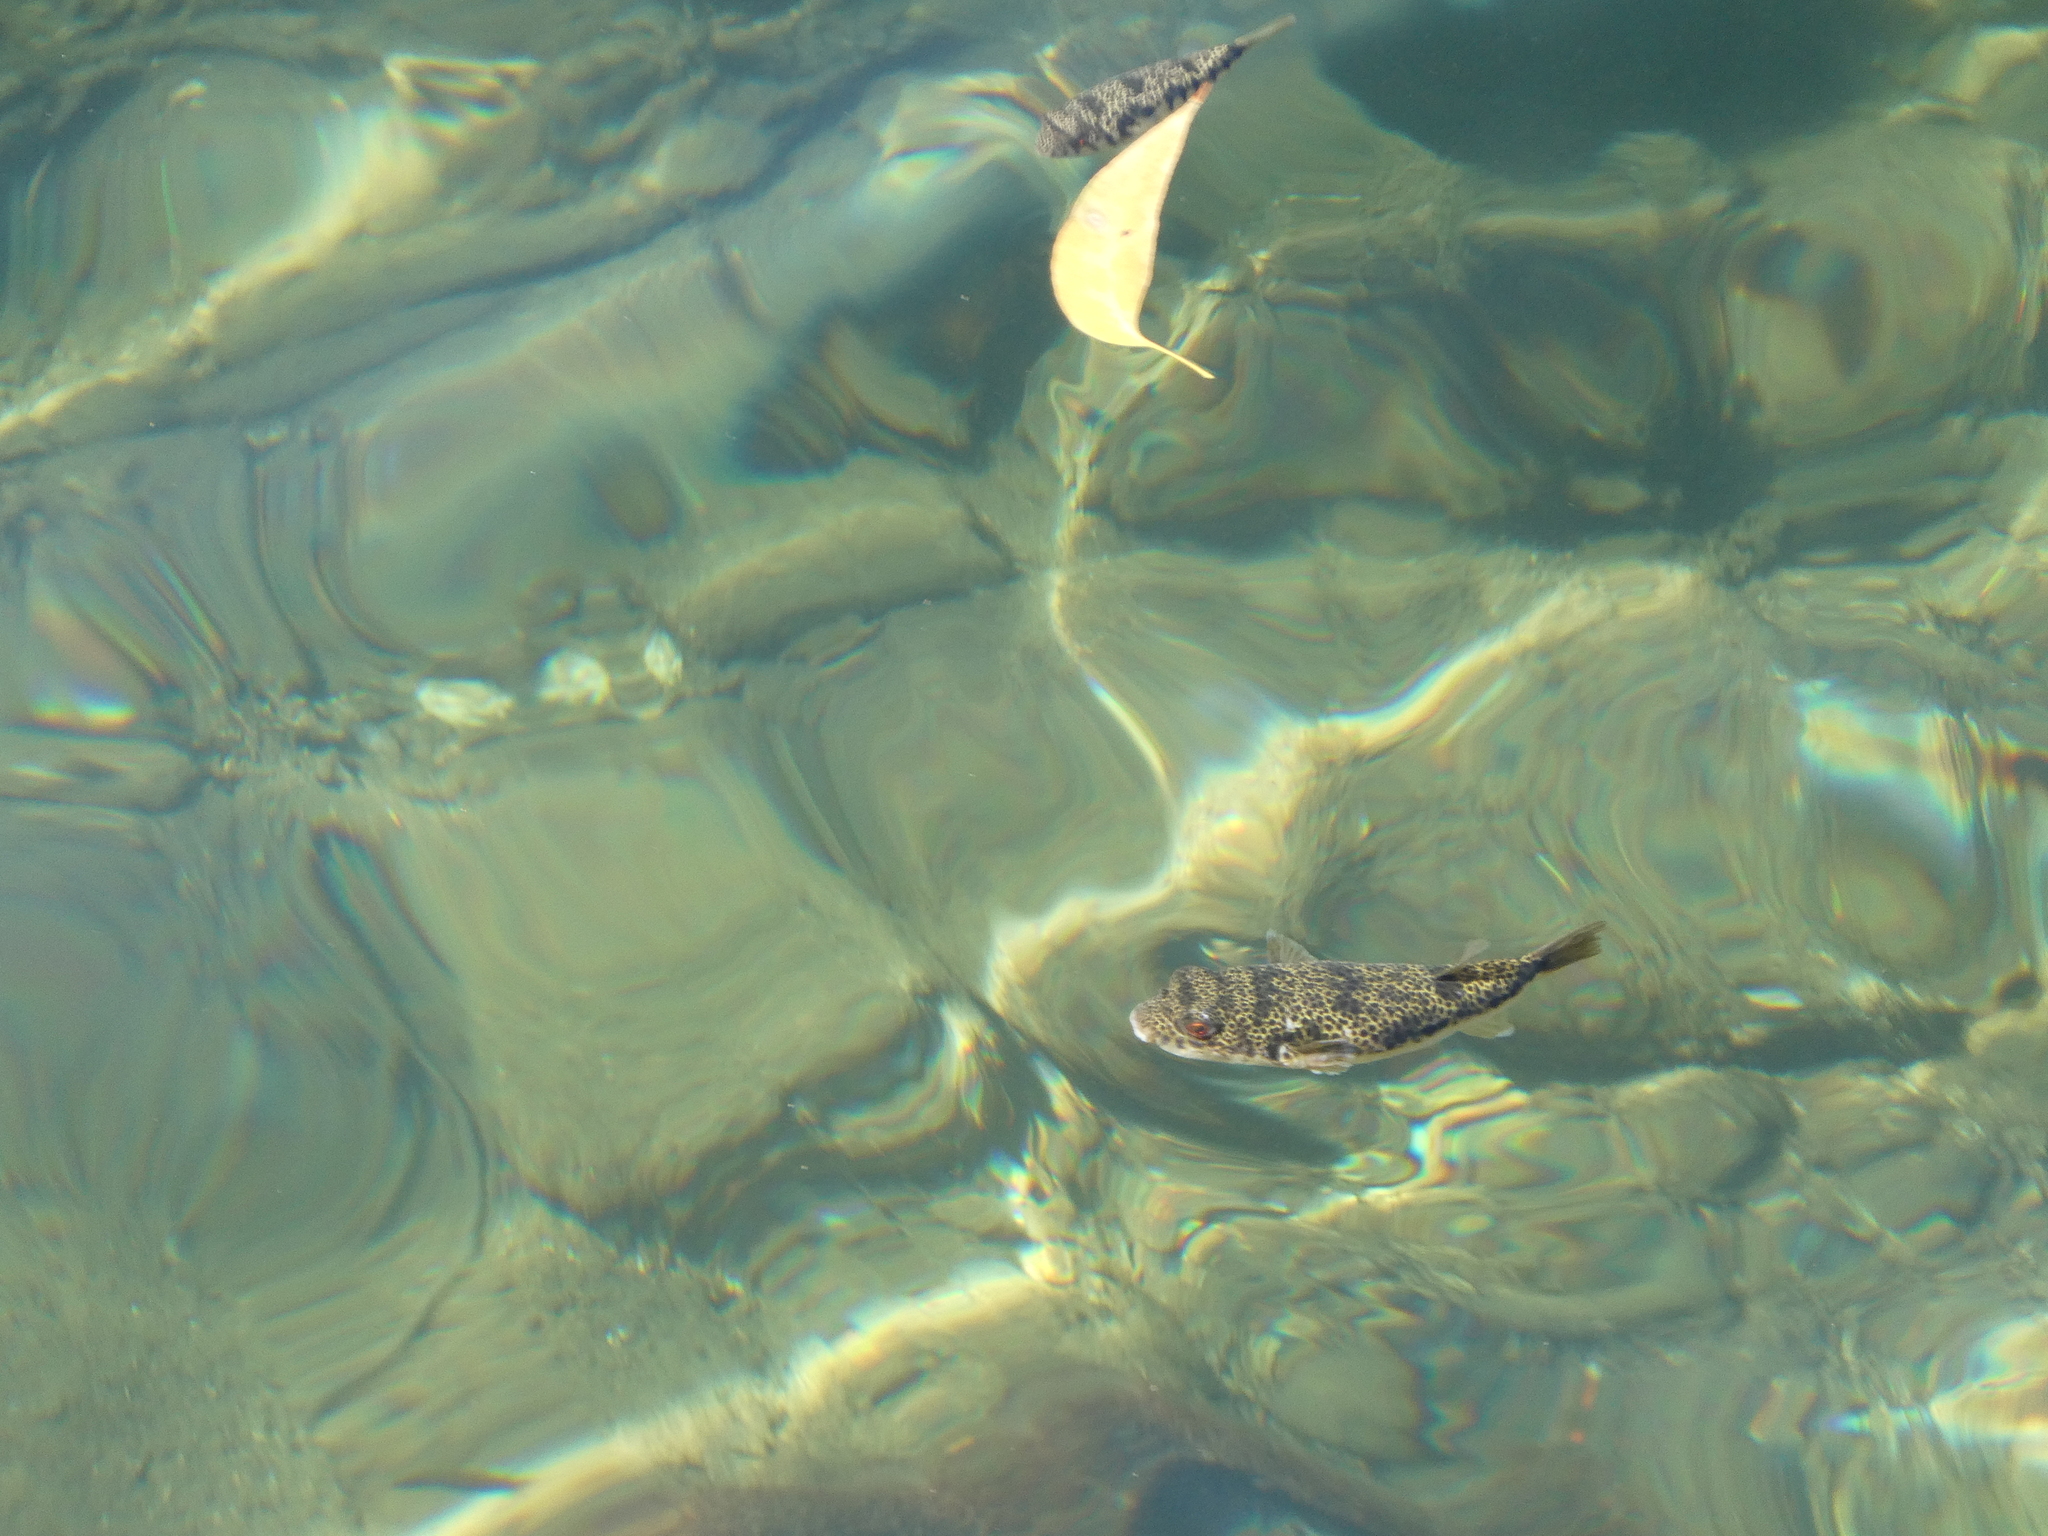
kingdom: Animalia
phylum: Chordata
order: Tetraodontiformes
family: Tetraodontidae
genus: Tetractenos
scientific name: Tetractenos hamiltoni
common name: Common toadfish
